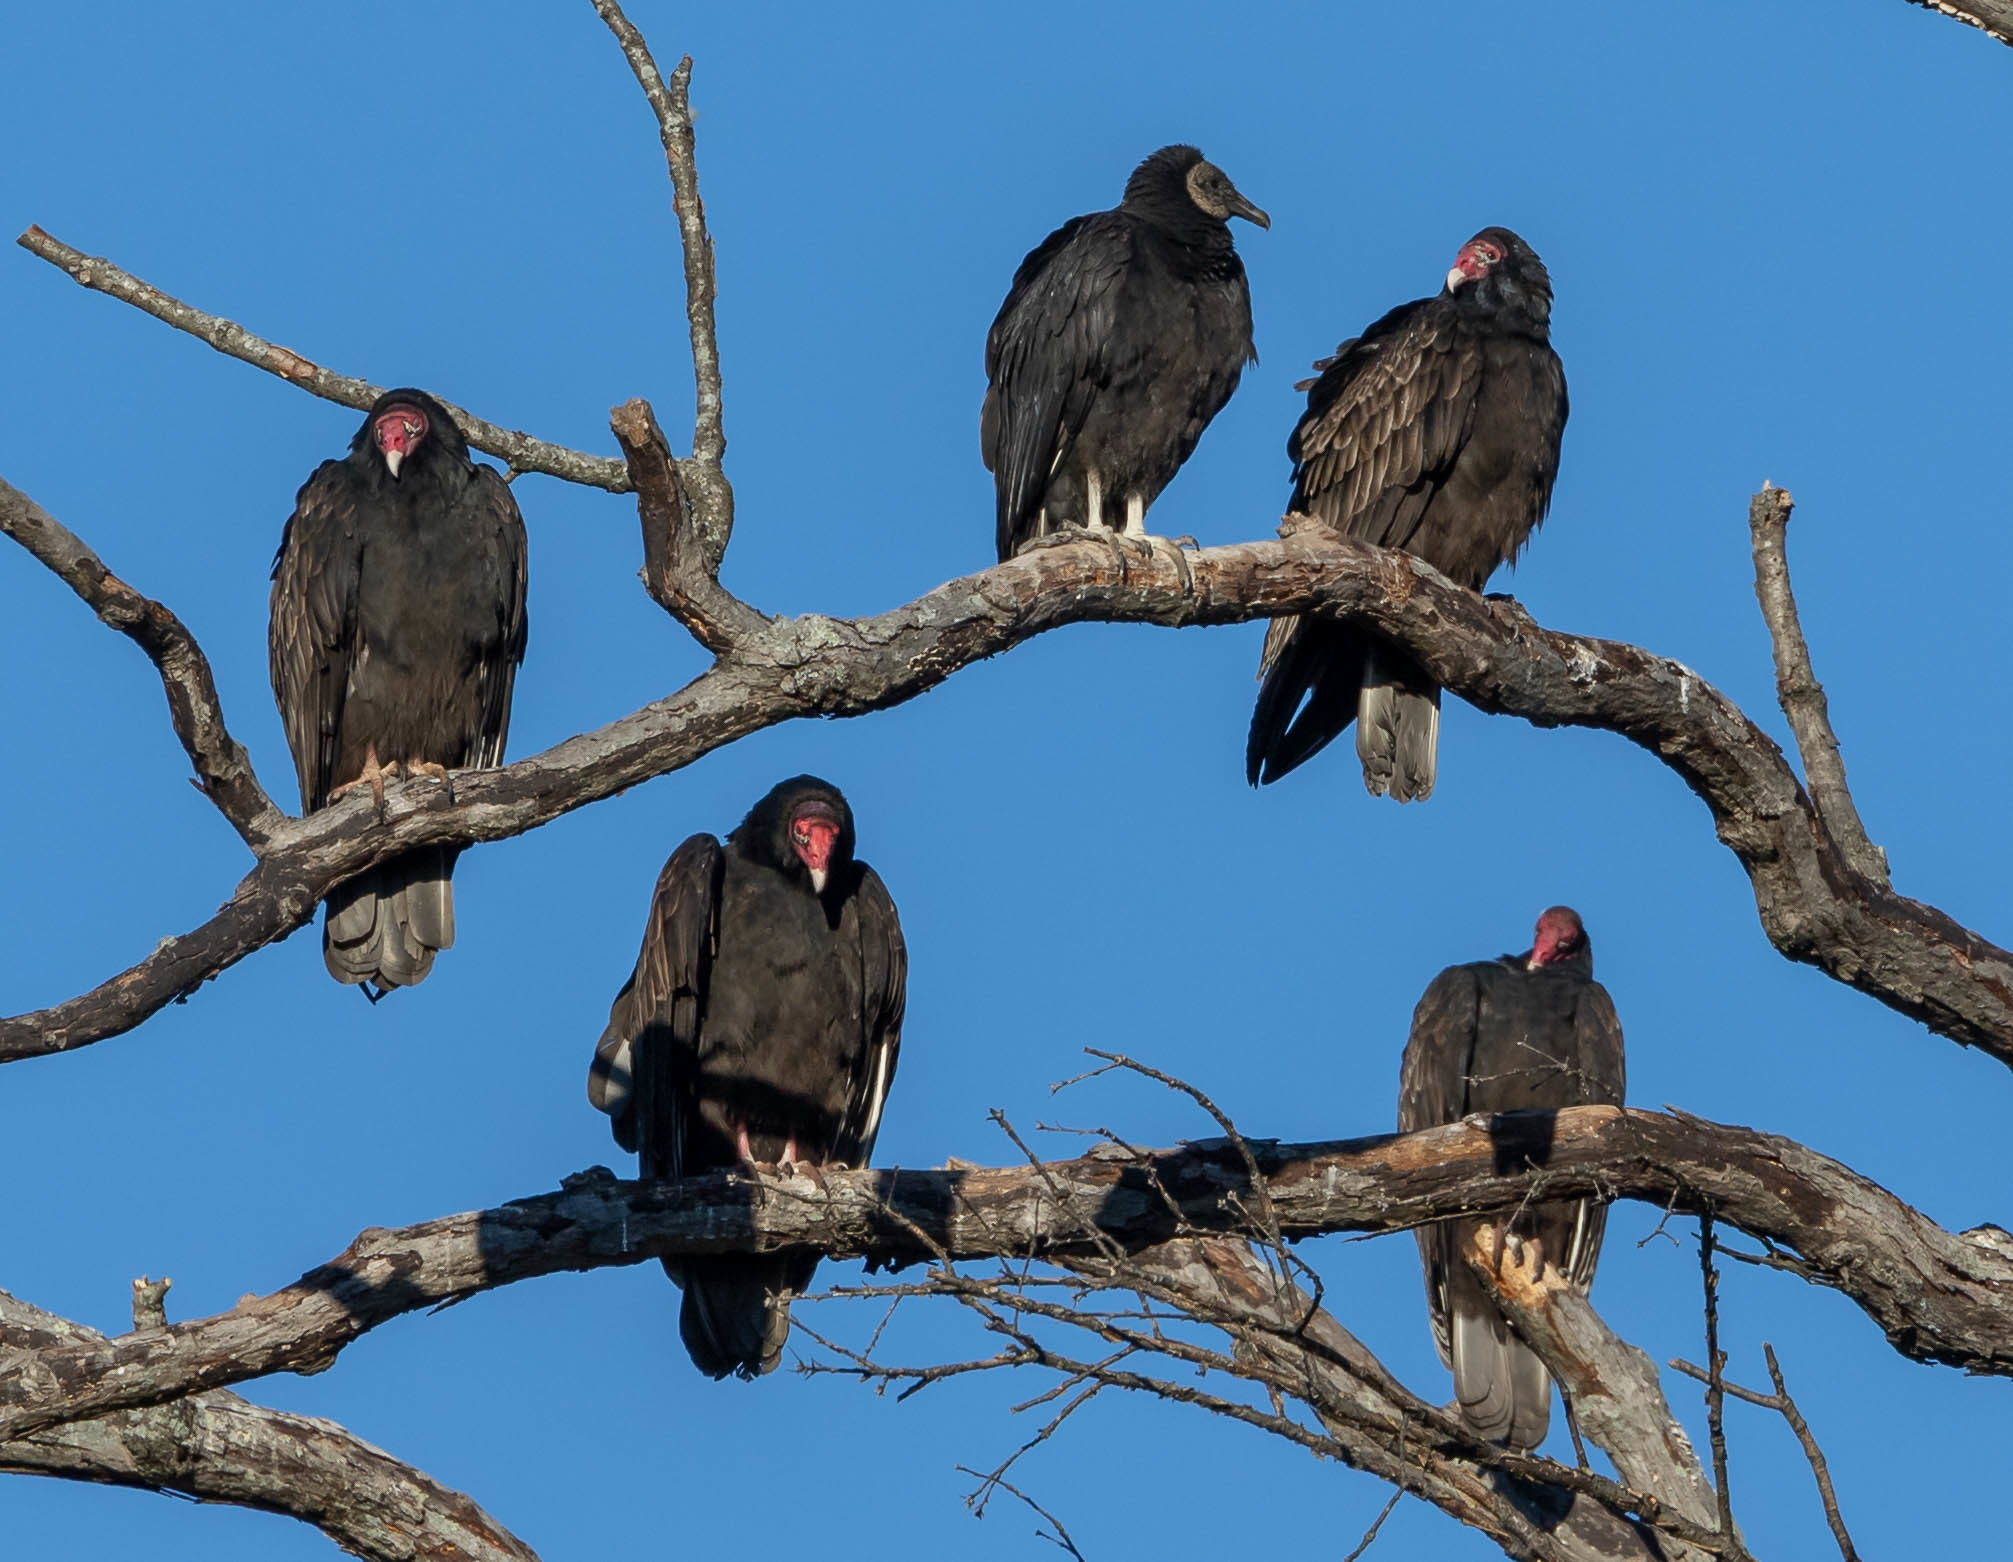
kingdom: Animalia
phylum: Chordata
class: Aves
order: Accipitriformes
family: Cathartidae
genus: Cathartes
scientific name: Cathartes aura
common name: Turkey vulture
